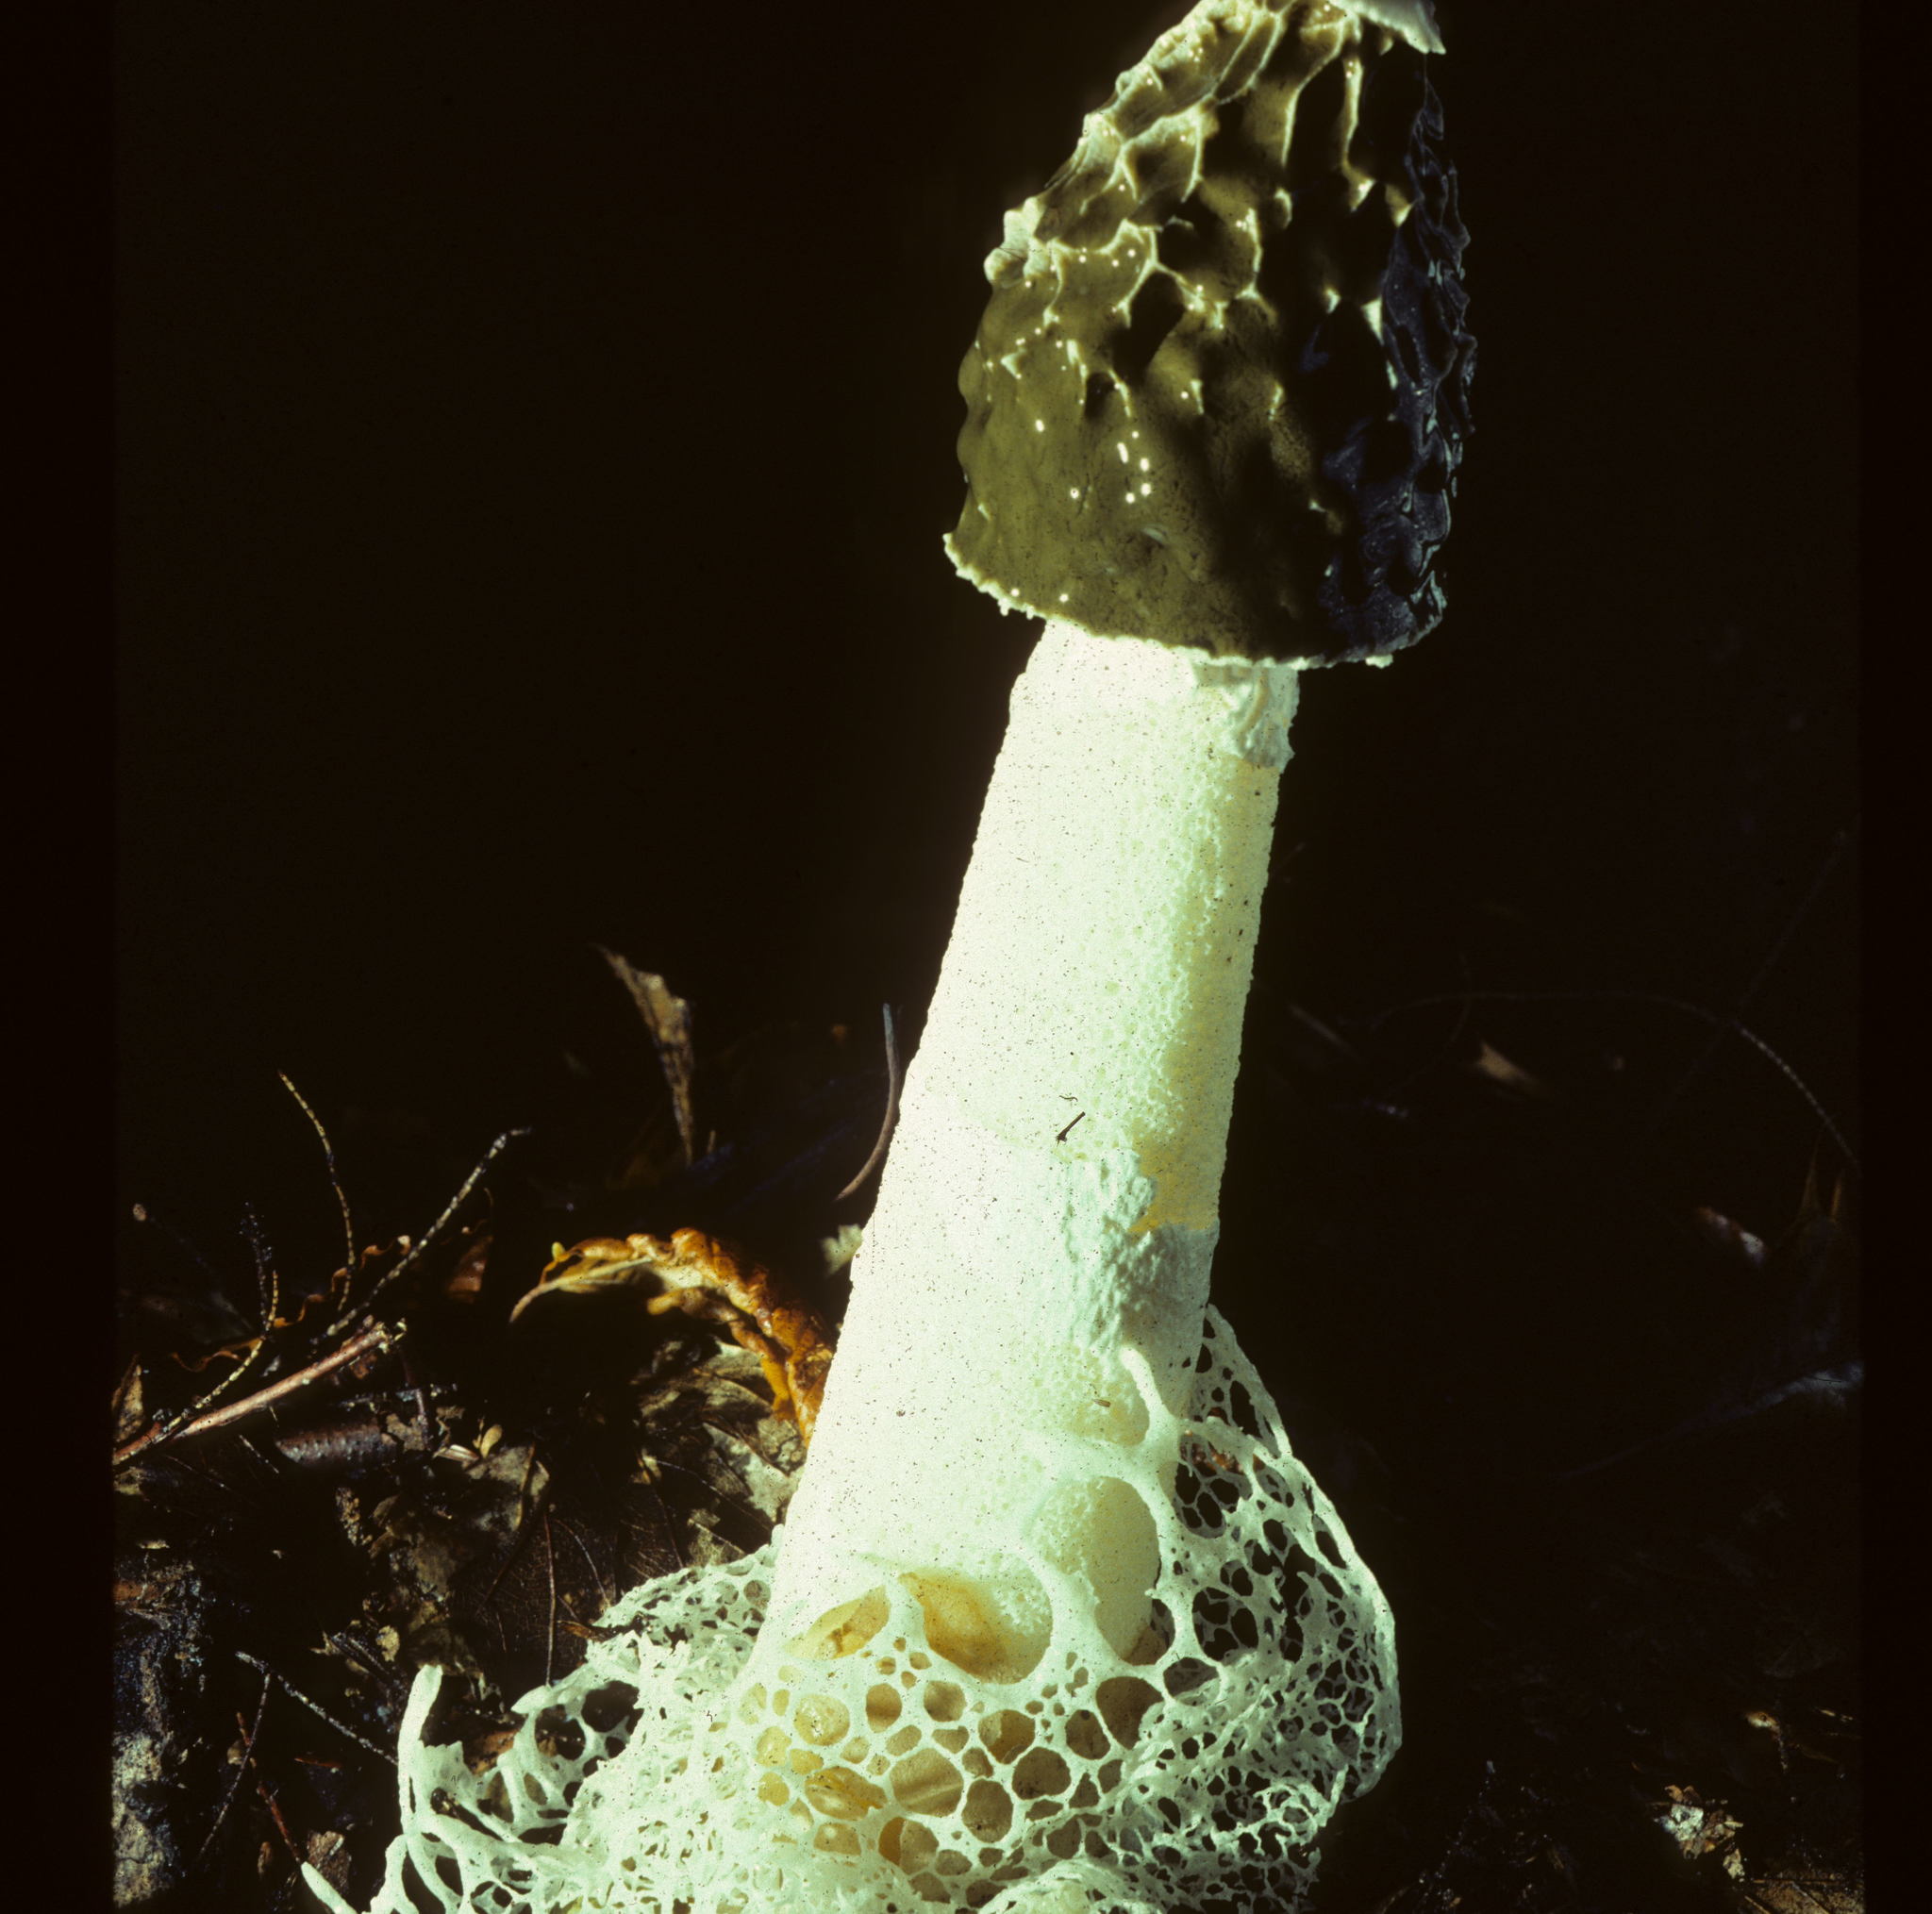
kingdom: Fungi
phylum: Basidiomycota
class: Agaricomycetes
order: Phallales
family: Phallaceae
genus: Phallus
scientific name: Phallus indusiatus
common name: Bridal veil stinkhorn
